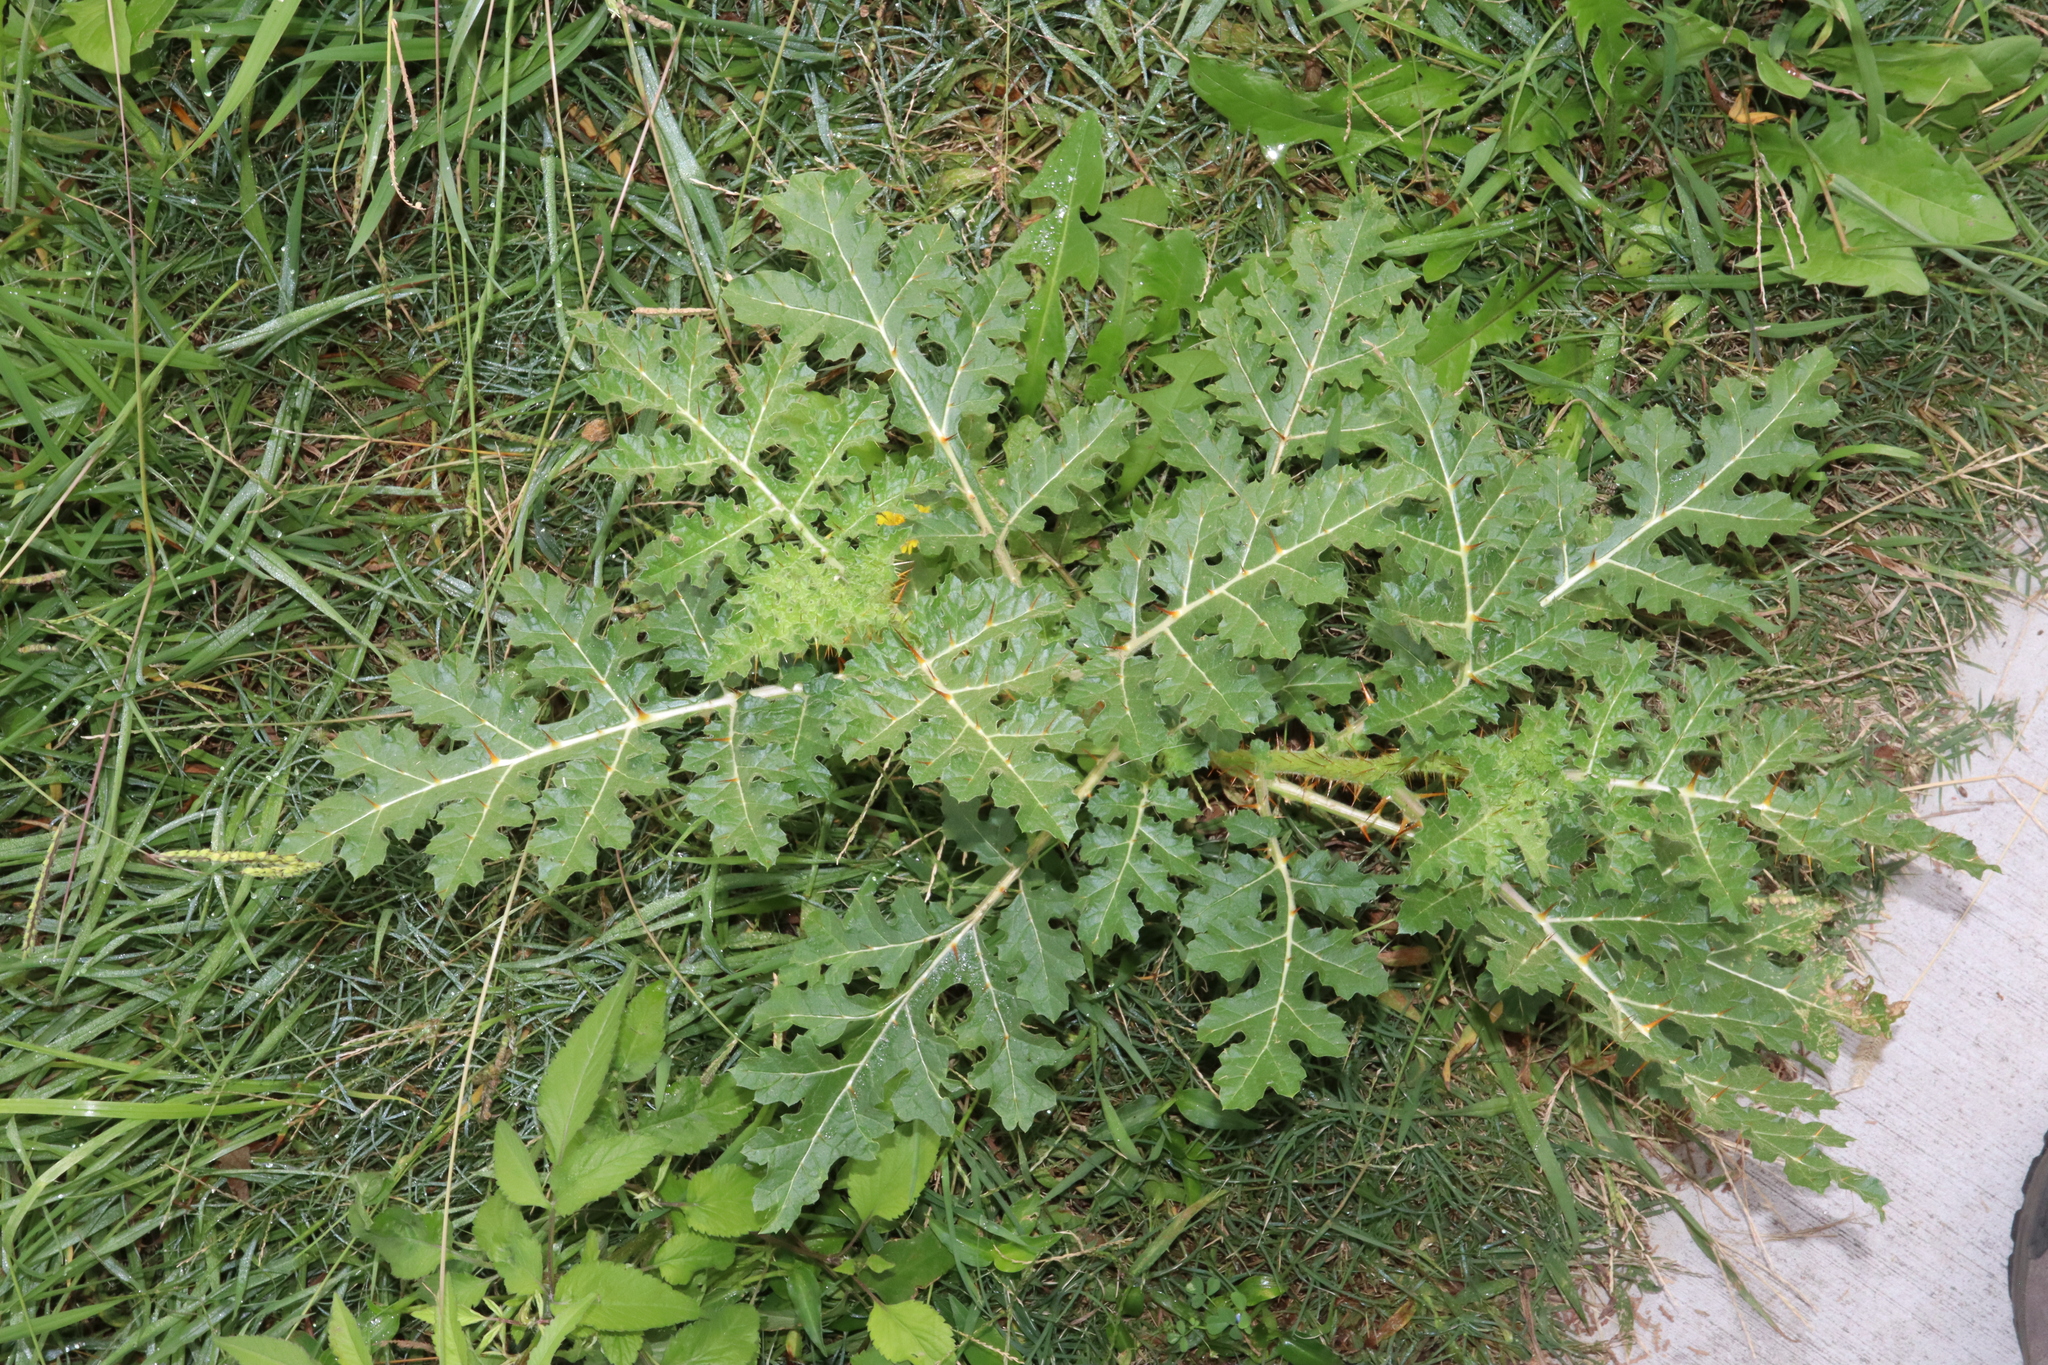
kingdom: Plantae
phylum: Tracheophyta
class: Magnoliopsida
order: Solanales
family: Solanaceae
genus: Solanum
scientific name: Solanum sisymbriifolium
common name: Red buffalo-bur
